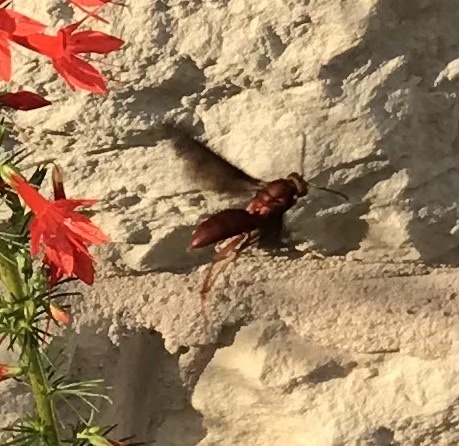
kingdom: Animalia
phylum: Arthropoda
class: Insecta
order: Hymenoptera
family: Vespidae
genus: Fuscopolistes
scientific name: Fuscopolistes
